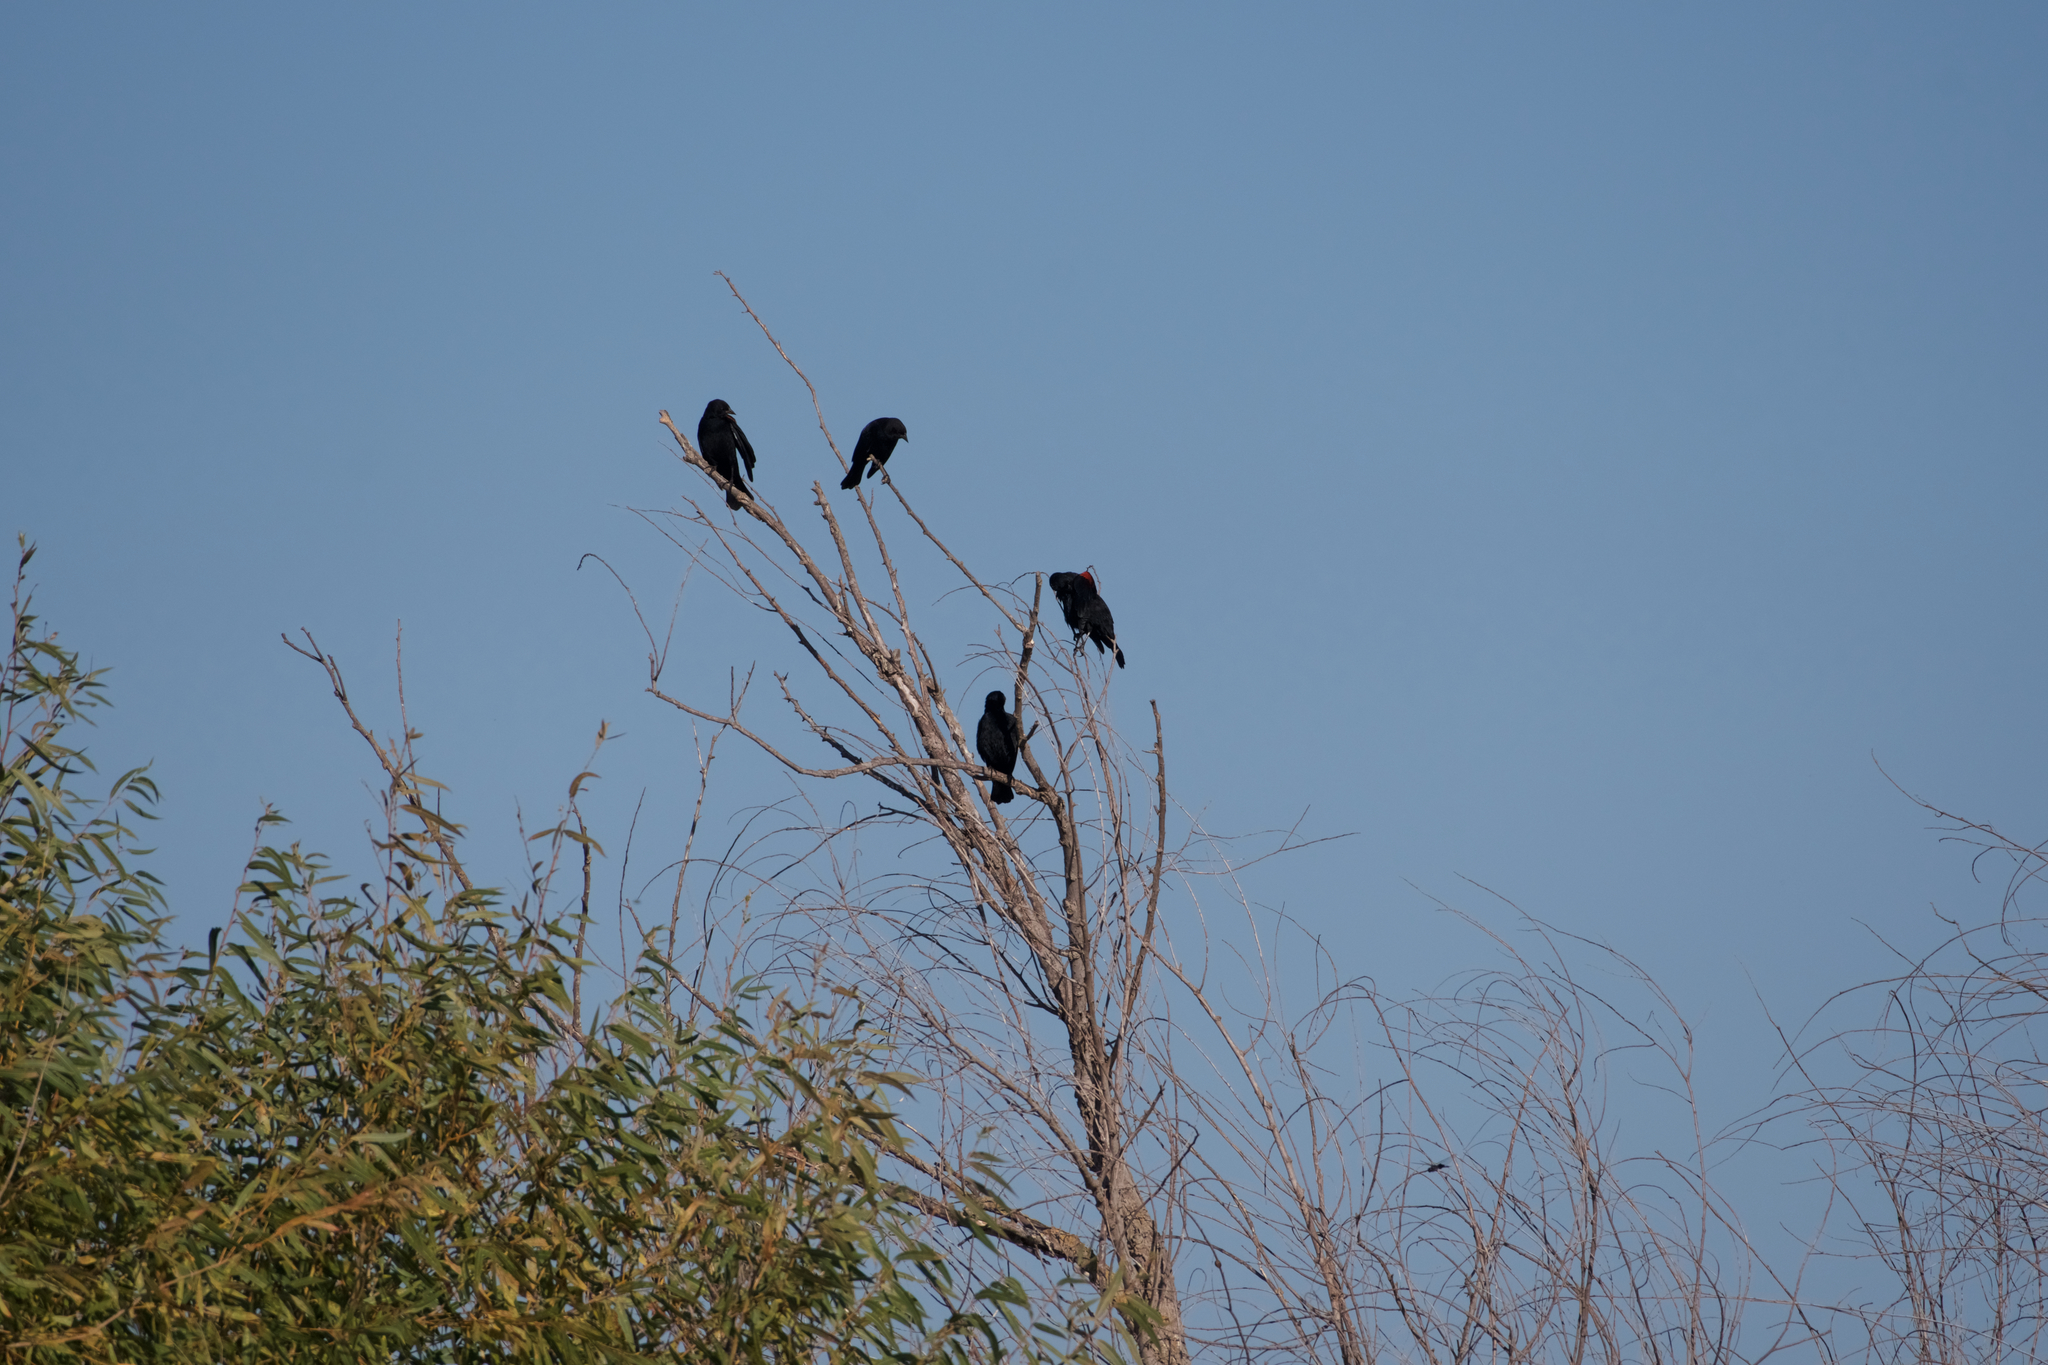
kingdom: Animalia
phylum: Chordata
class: Aves
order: Passeriformes
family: Icteridae
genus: Agelaius
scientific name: Agelaius phoeniceus
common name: Red-winged blackbird
